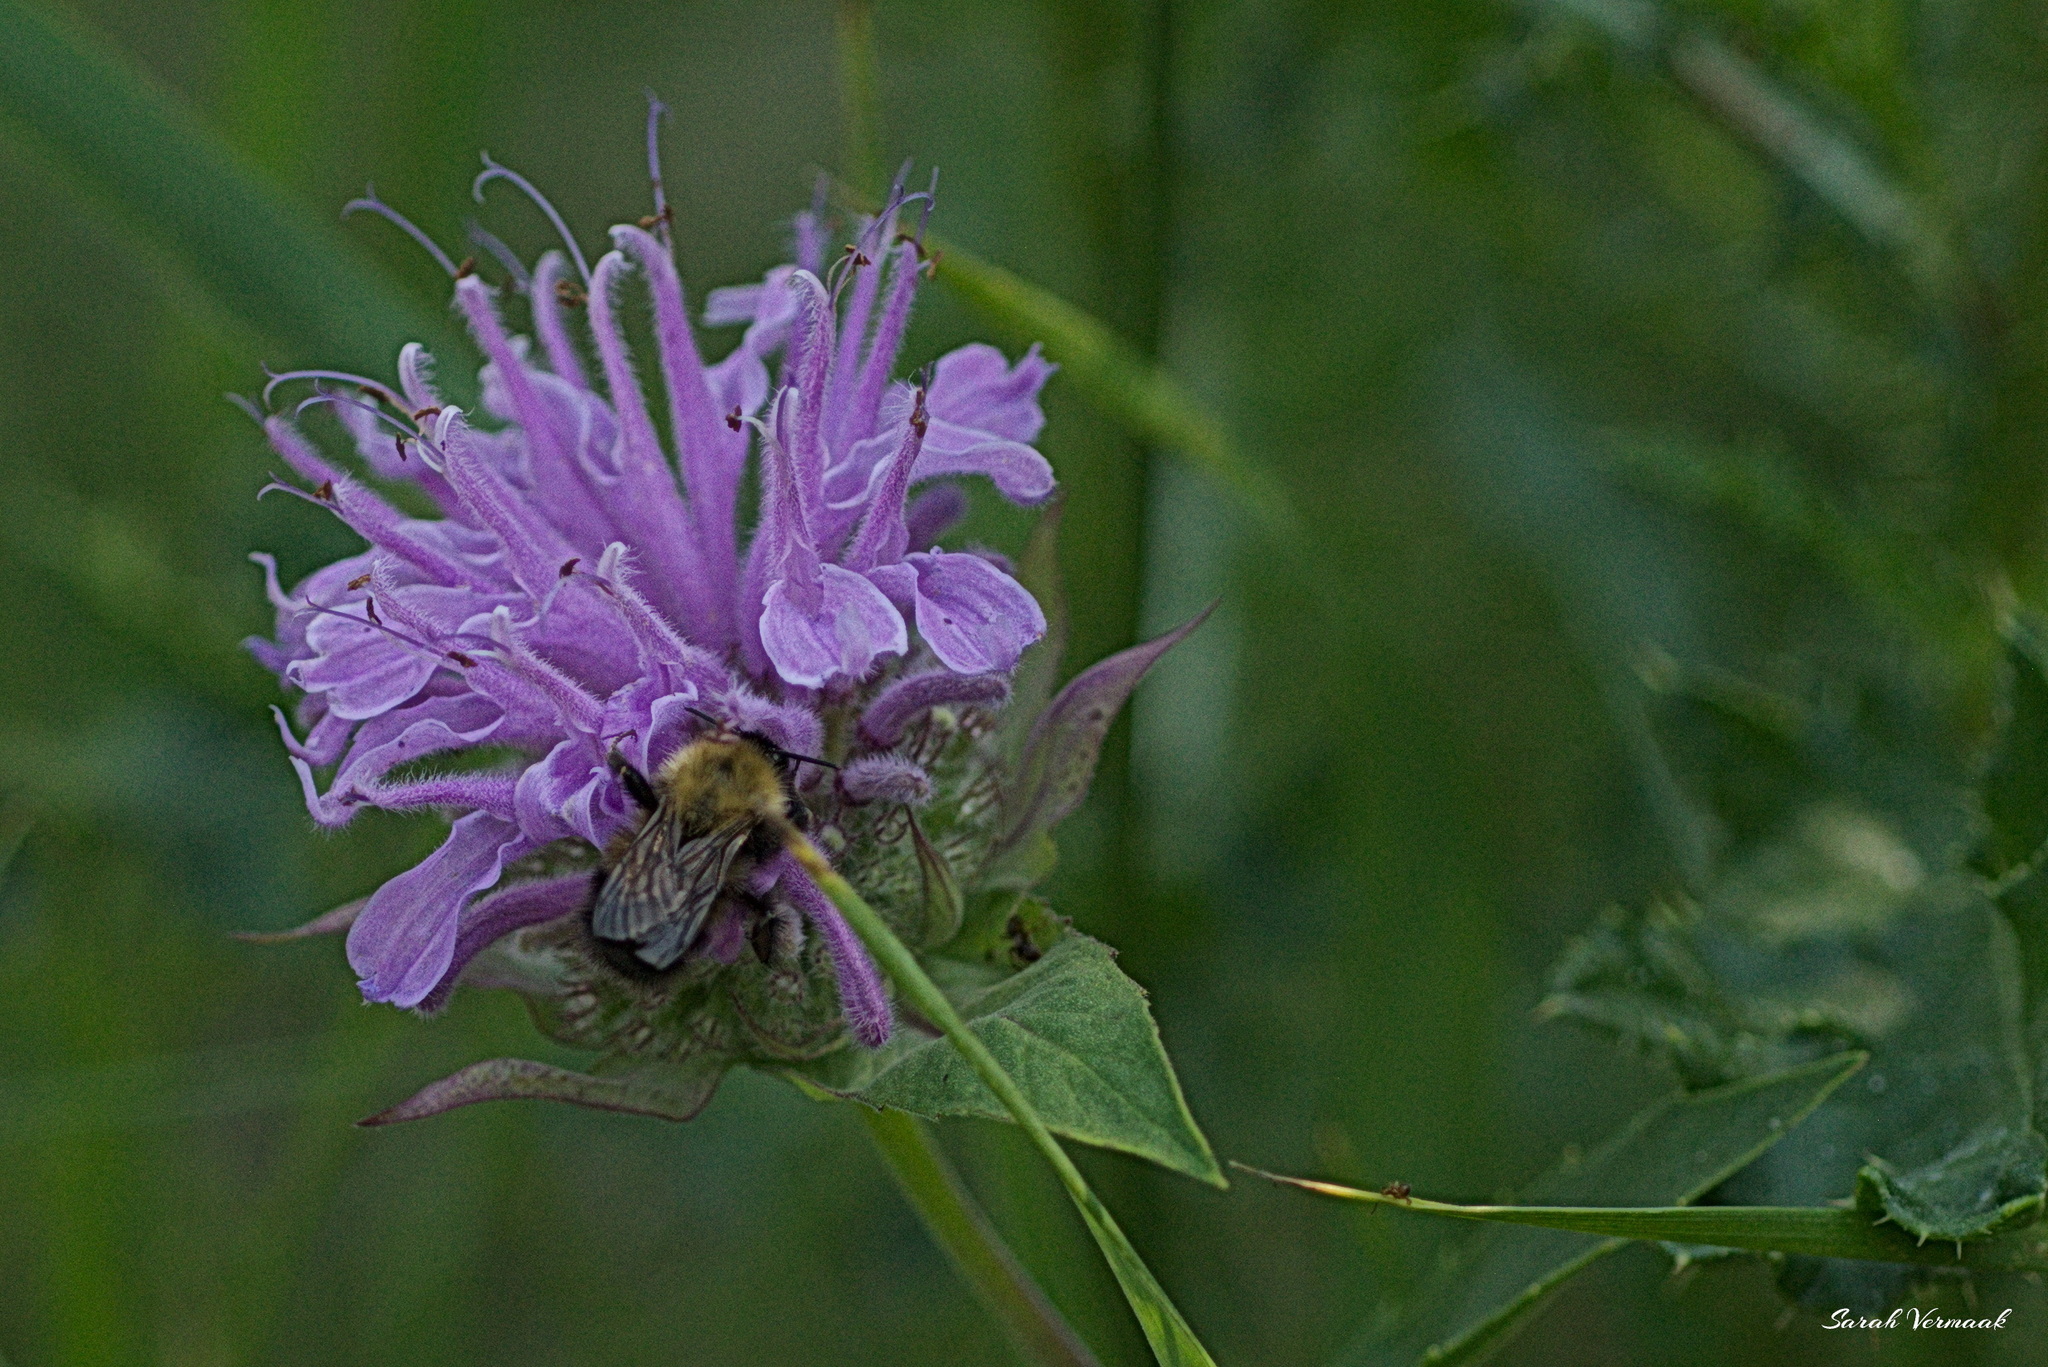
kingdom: Plantae
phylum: Tracheophyta
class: Magnoliopsida
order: Lamiales
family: Lamiaceae
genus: Monarda
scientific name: Monarda fistulosa
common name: Purple beebalm
